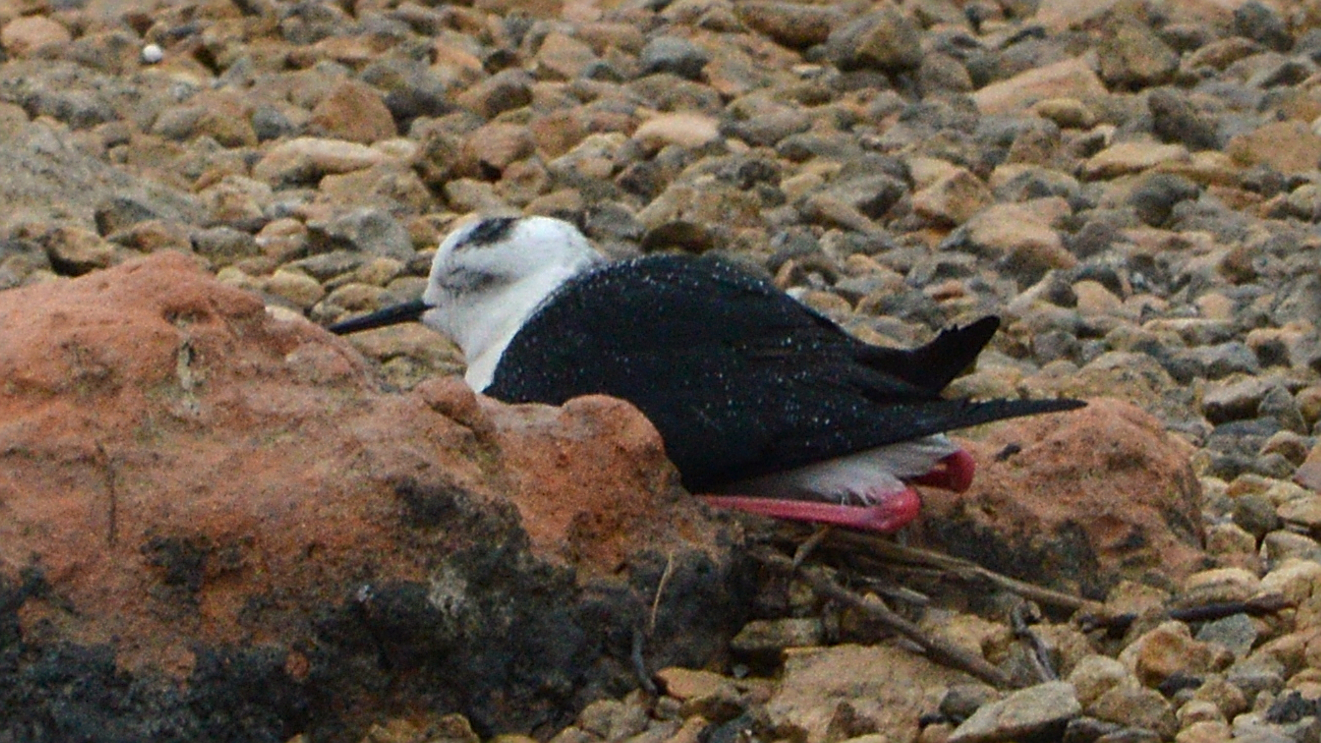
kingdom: Animalia
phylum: Chordata
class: Aves
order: Charadriiformes
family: Recurvirostridae
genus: Himantopus
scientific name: Himantopus himantopus
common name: Black-winged stilt
